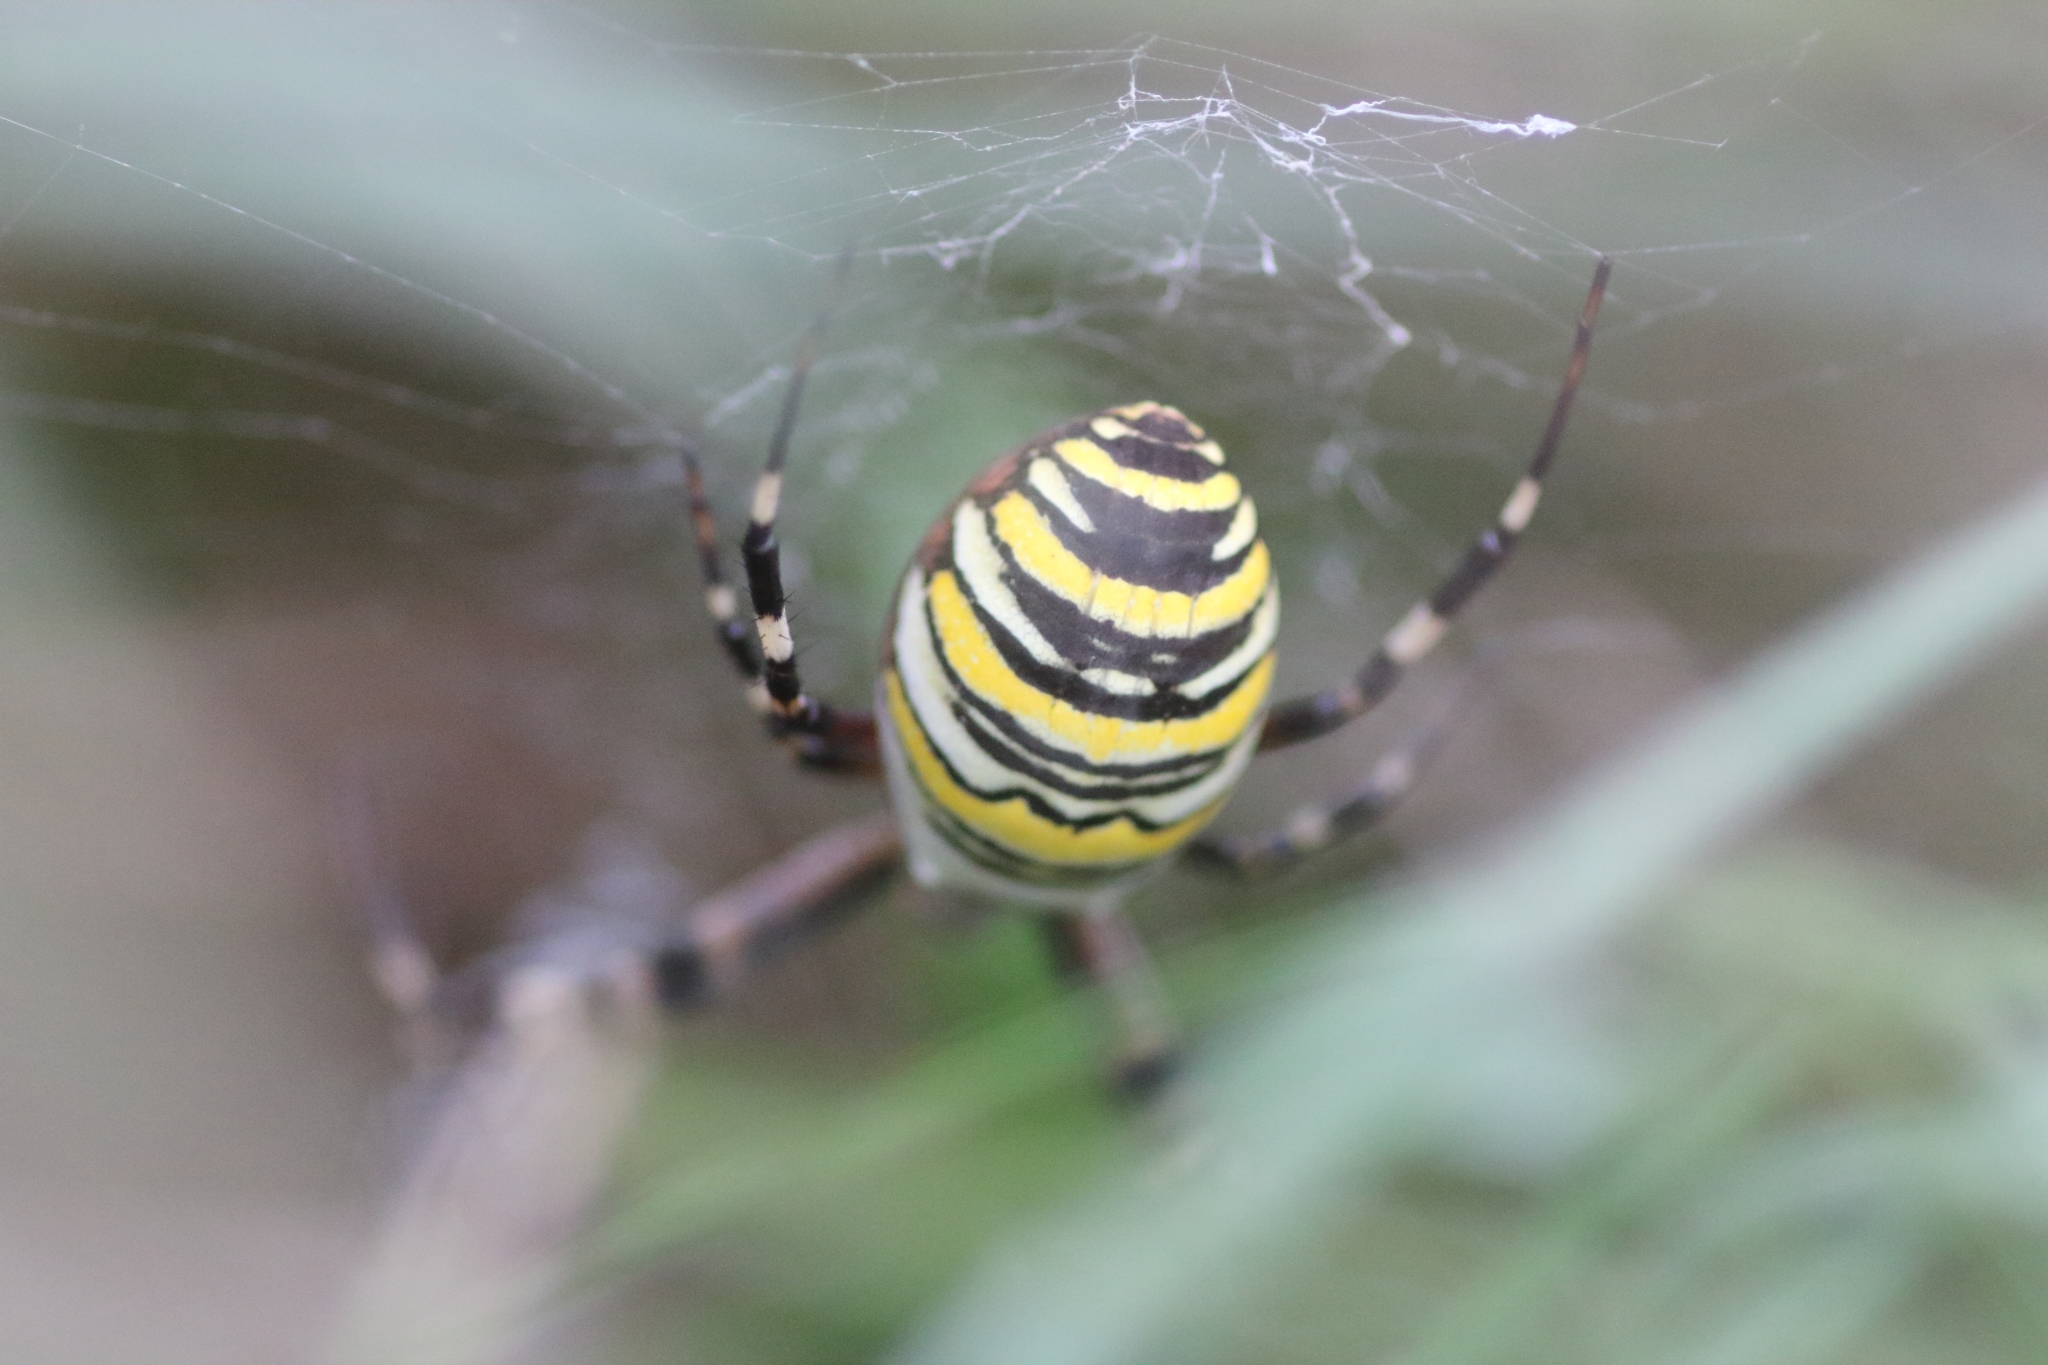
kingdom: Animalia
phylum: Arthropoda
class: Arachnida
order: Araneae
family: Araneidae
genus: Argiope
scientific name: Argiope bruennichi
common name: Wasp spider
